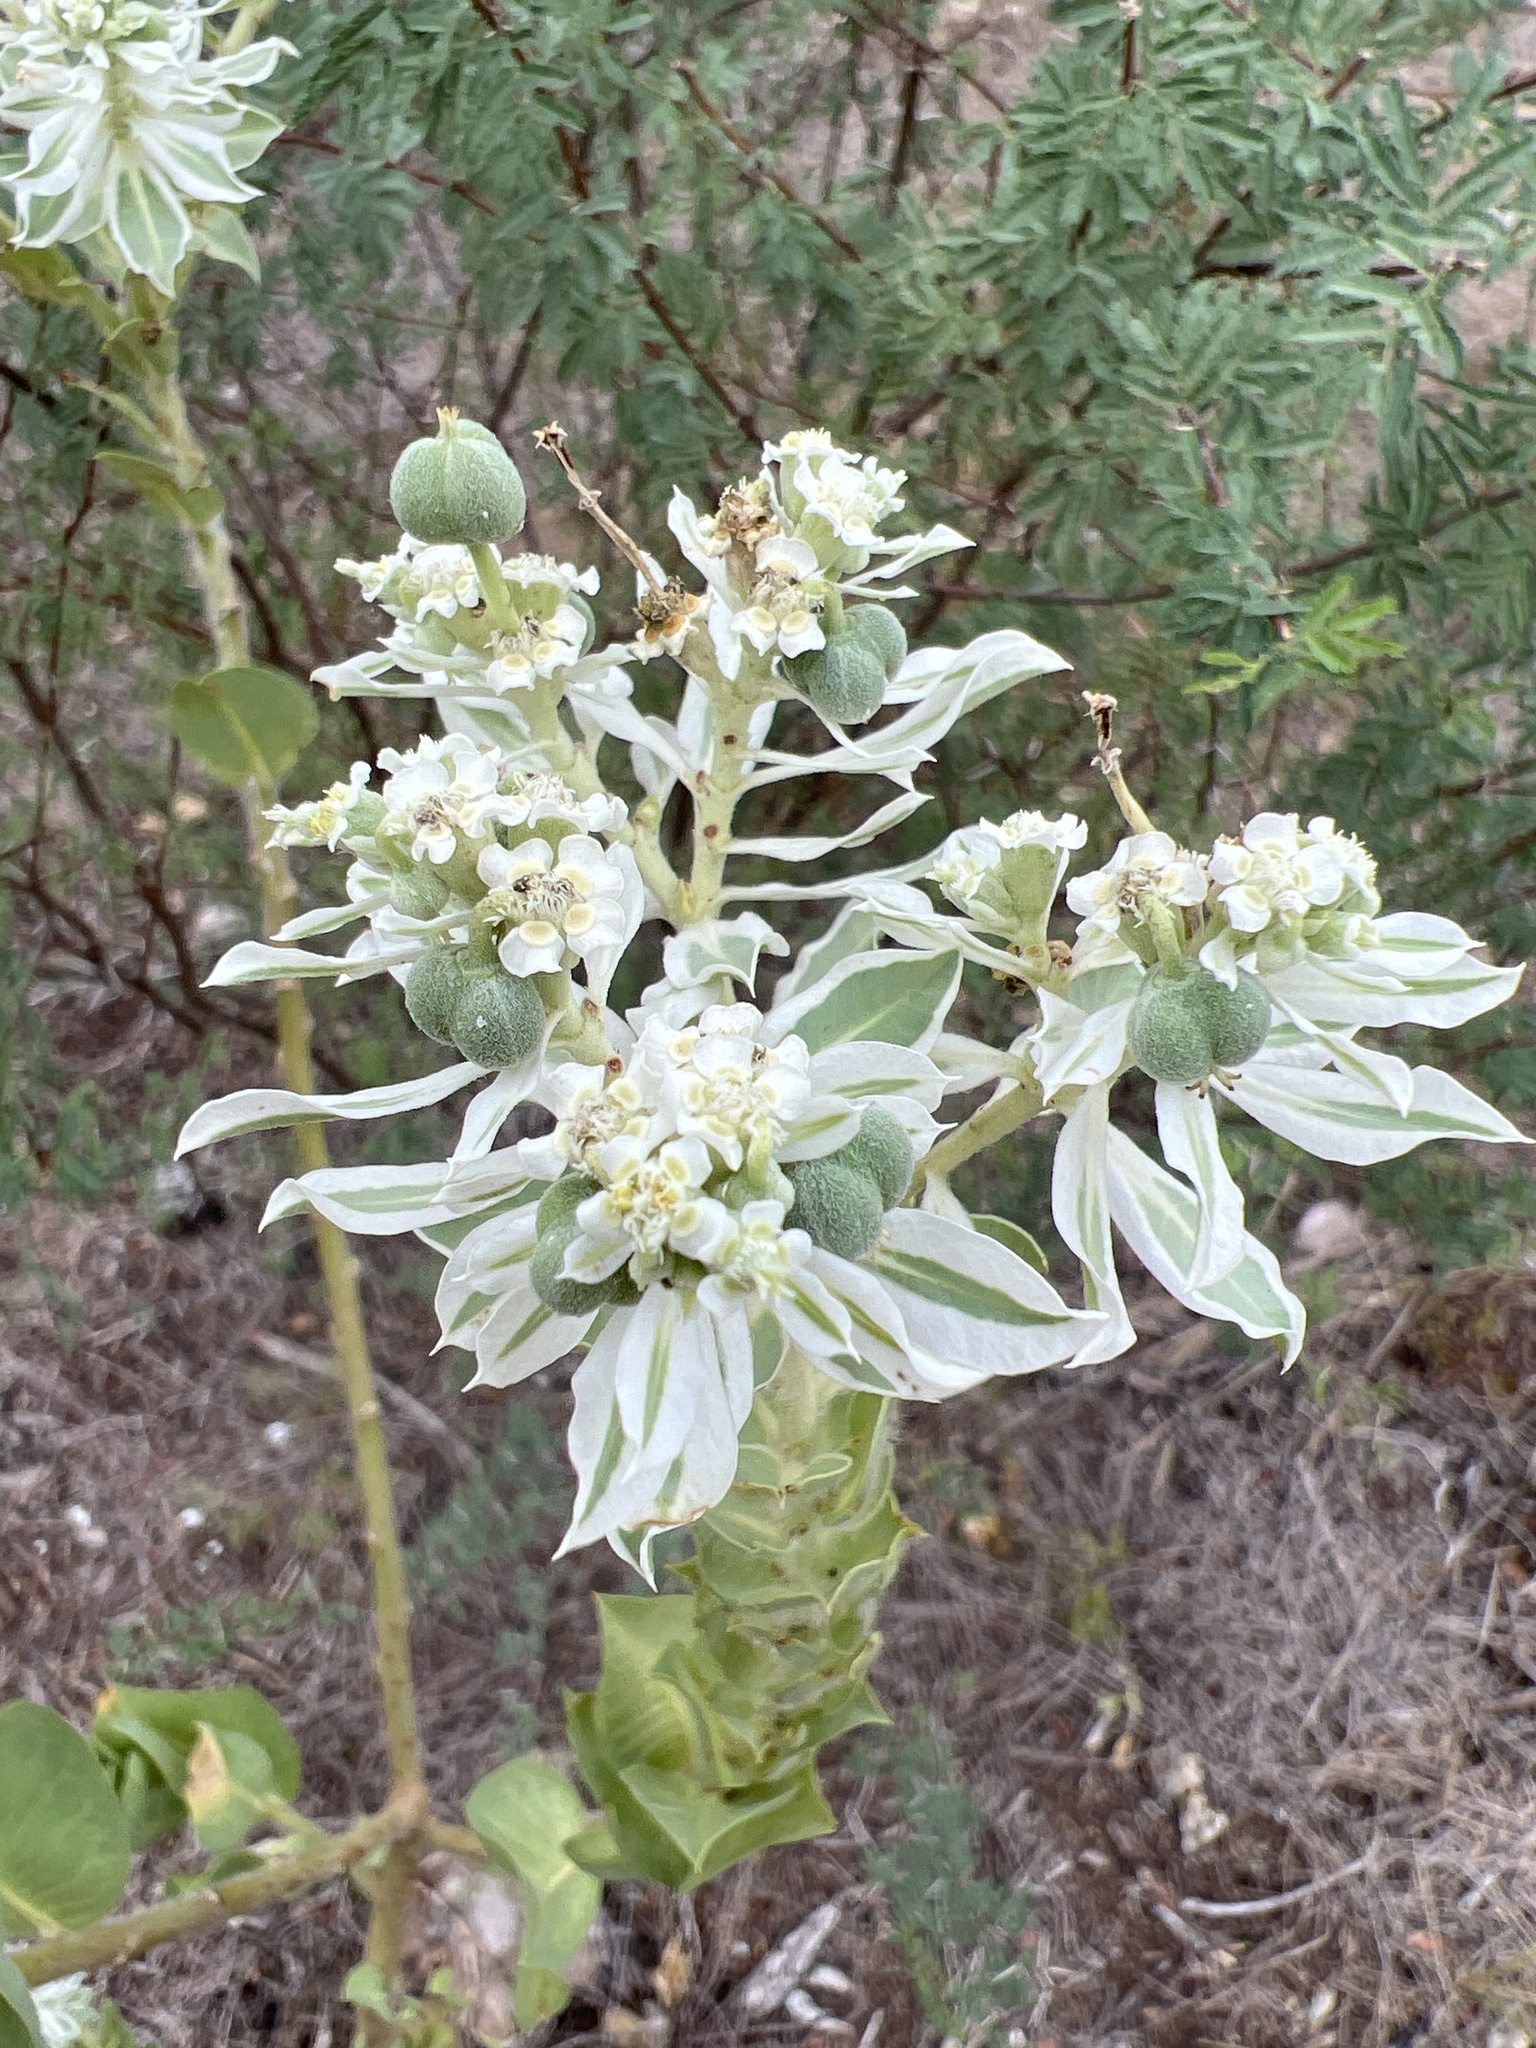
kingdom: Plantae
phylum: Tracheophyta
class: Magnoliopsida
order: Malpighiales
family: Euphorbiaceae
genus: Euphorbia
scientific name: Euphorbia marginata
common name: Ghostweed
